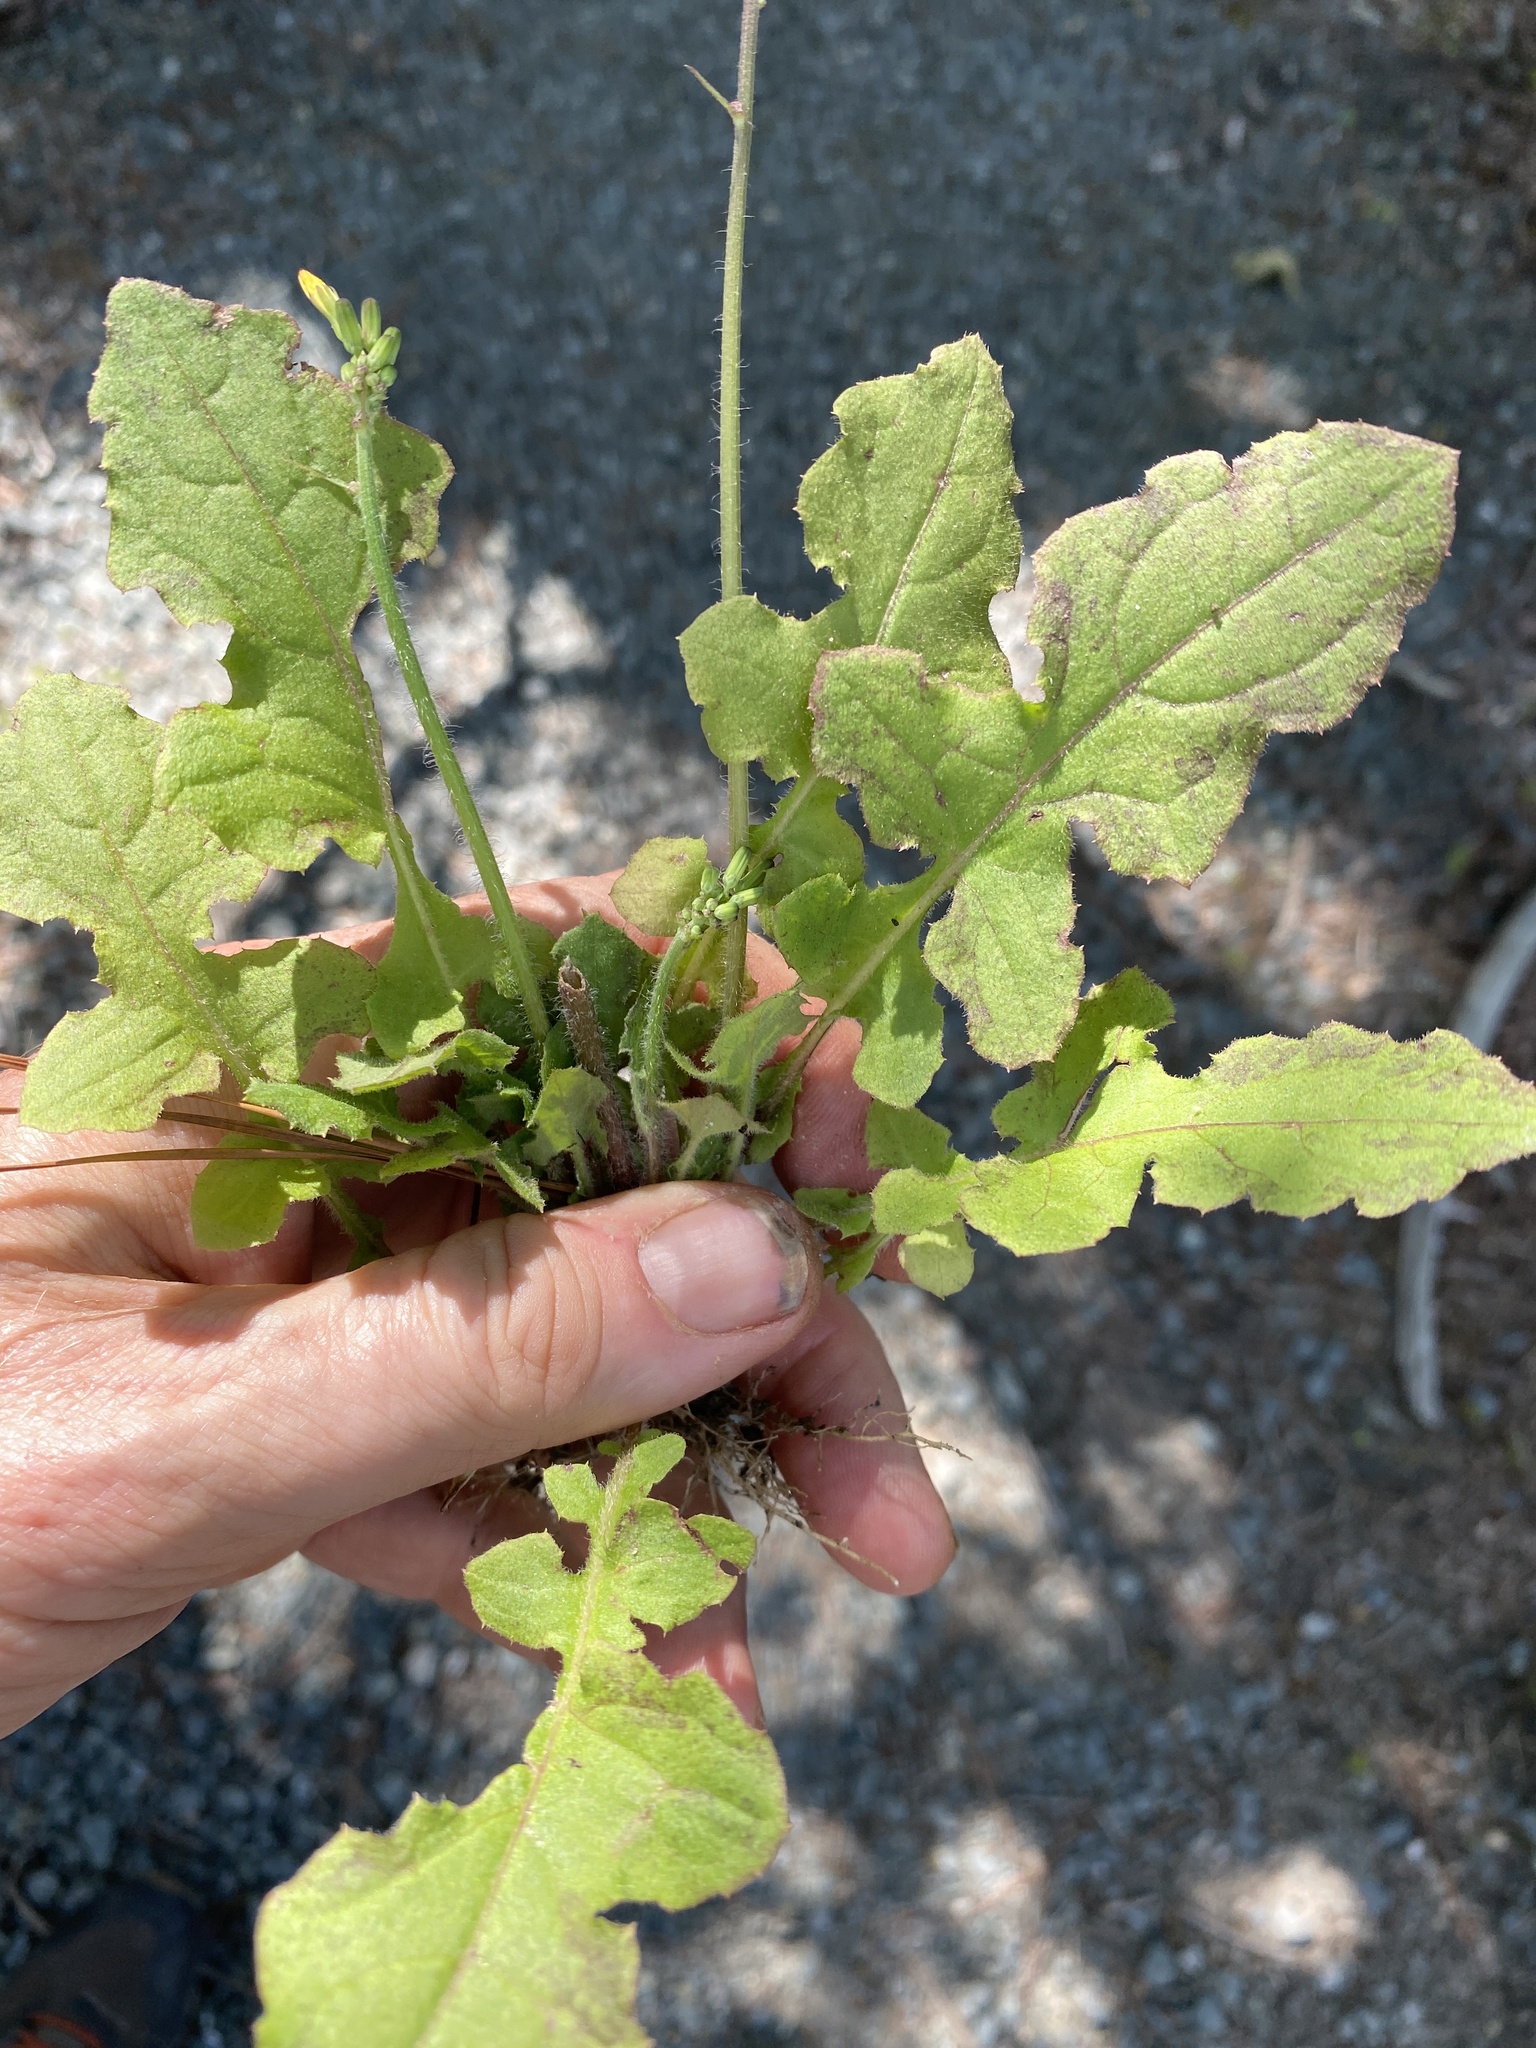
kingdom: Plantae
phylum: Tracheophyta
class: Magnoliopsida
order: Asterales
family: Asteraceae
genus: Youngia
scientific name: Youngia japonica
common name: Oriental false hawksbeard
